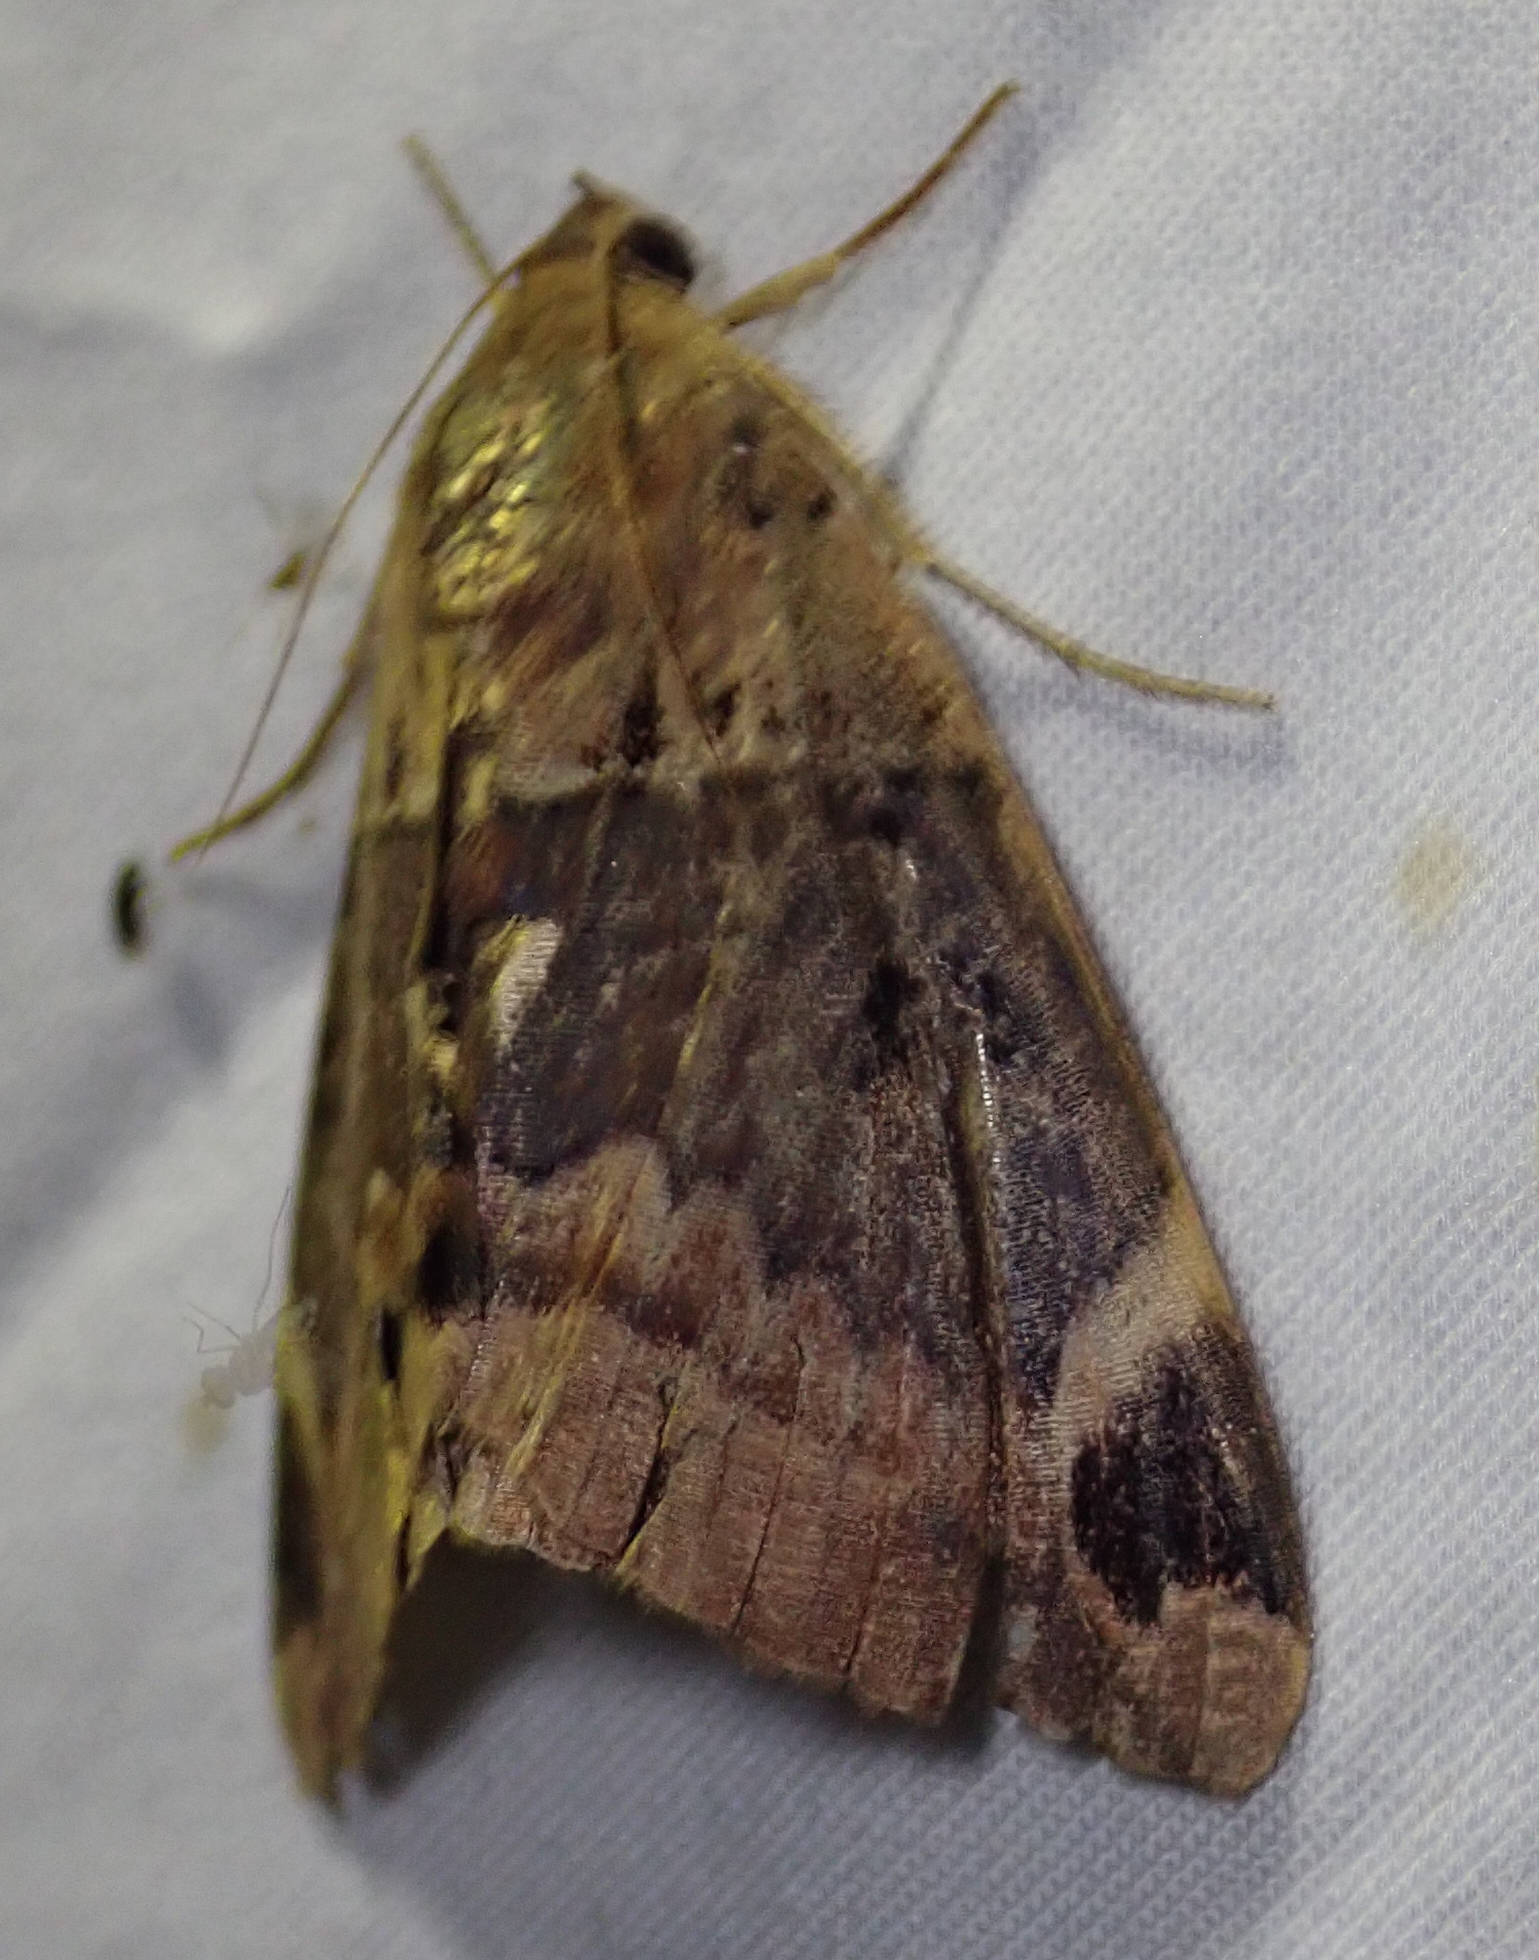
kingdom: Animalia
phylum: Arthropoda
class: Insecta
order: Lepidoptera
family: Erebidae
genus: Achaea
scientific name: Achaea lienardi
